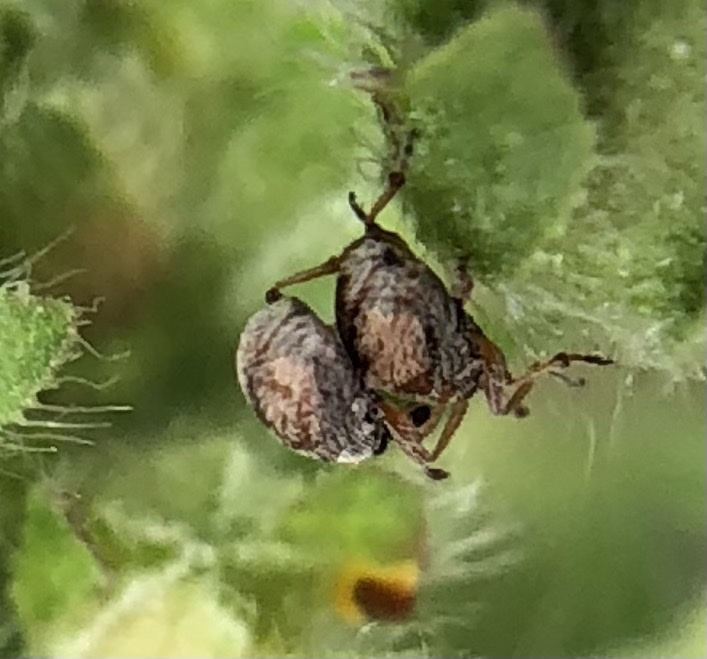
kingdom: Animalia
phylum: Arthropoda
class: Insecta
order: Coleoptera
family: Apionidae
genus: Malvapion
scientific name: Malvapion malvae
